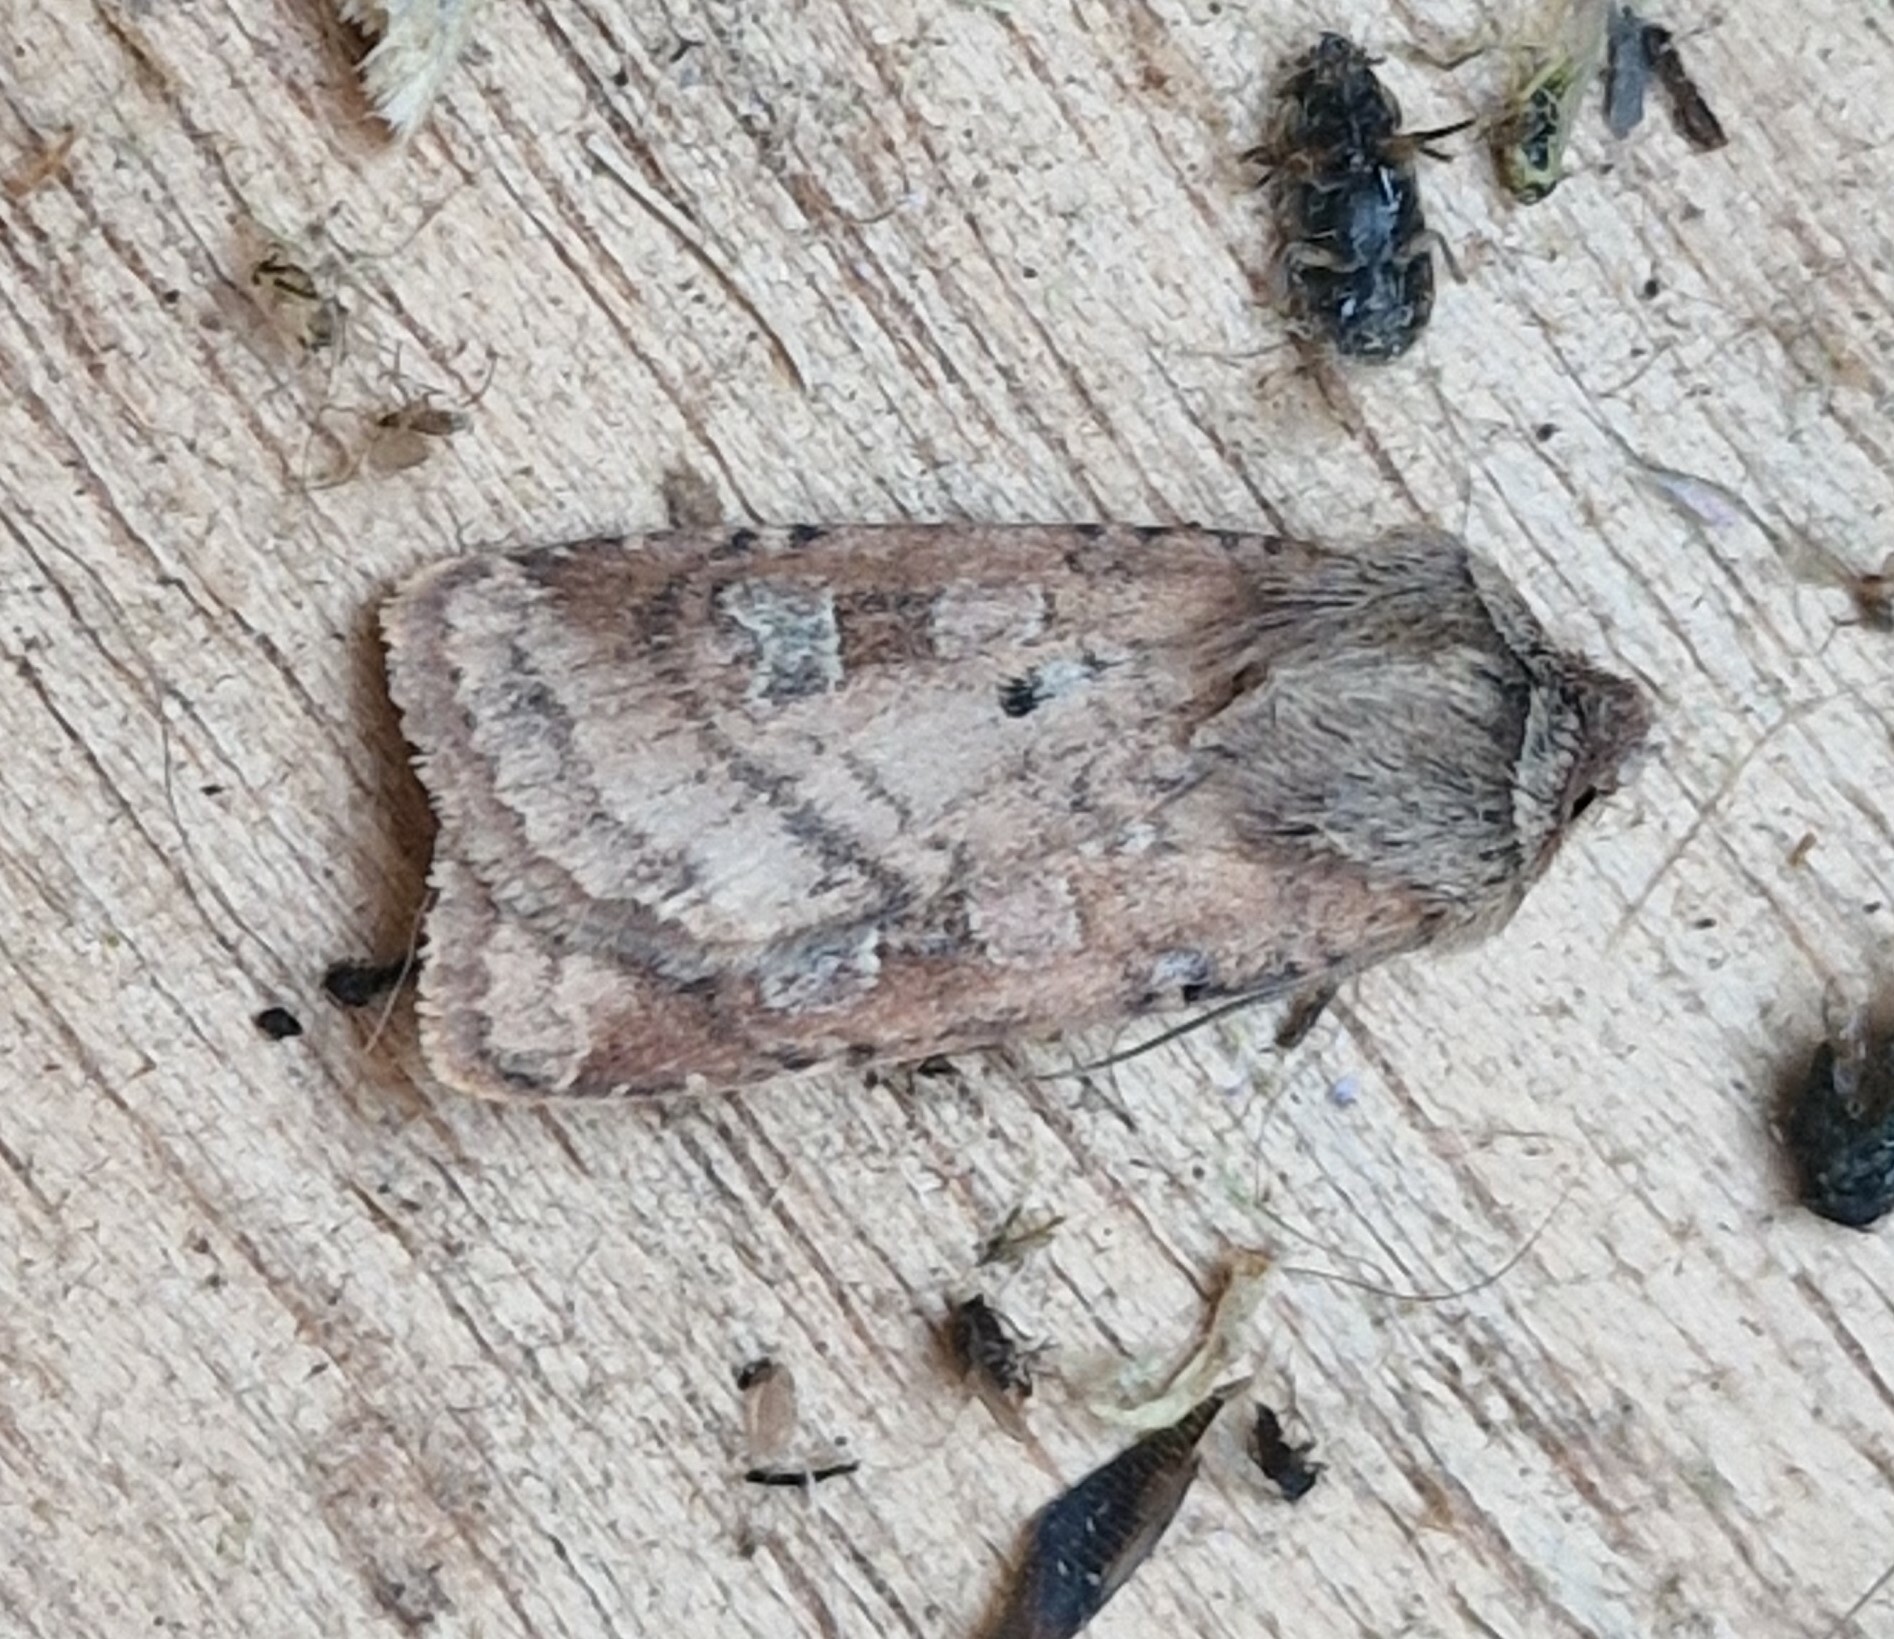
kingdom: Animalia
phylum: Arthropoda
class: Insecta
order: Lepidoptera
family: Noctuidae
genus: Diarsia
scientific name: Diarsia rubi
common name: Small square-spot
